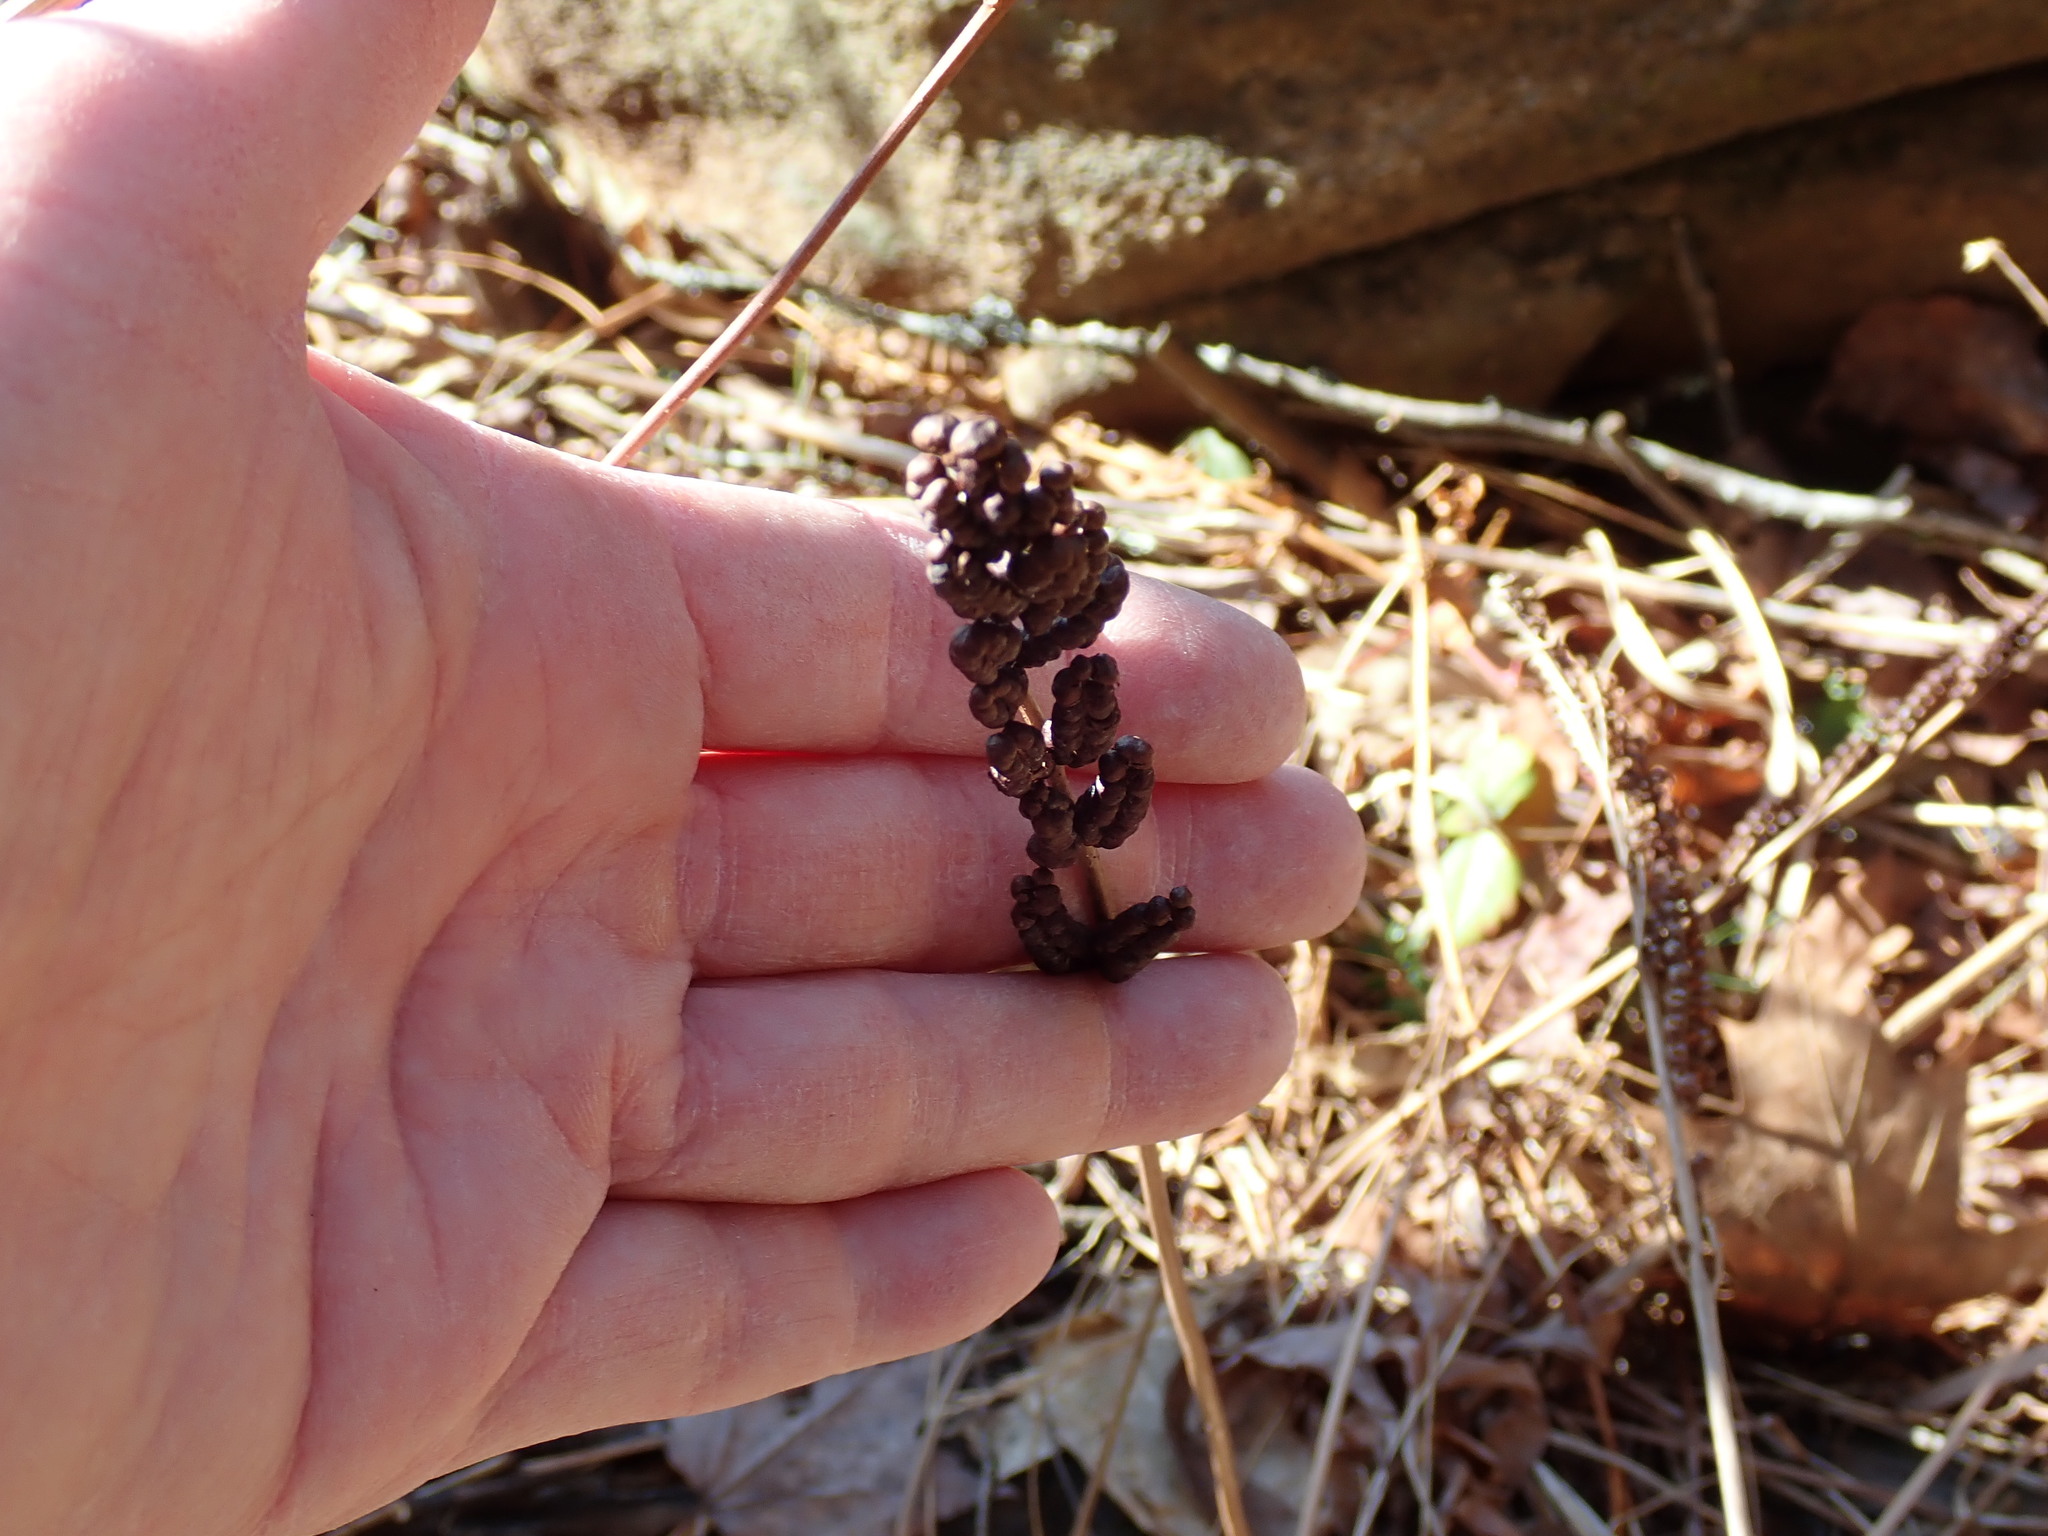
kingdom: Plantae
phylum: Tracheophyta
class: Polypodiopsida
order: Polypodiales
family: Onocleaceae
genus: Onoclea
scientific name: Onoclea sensibilis
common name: Sensitive fern
